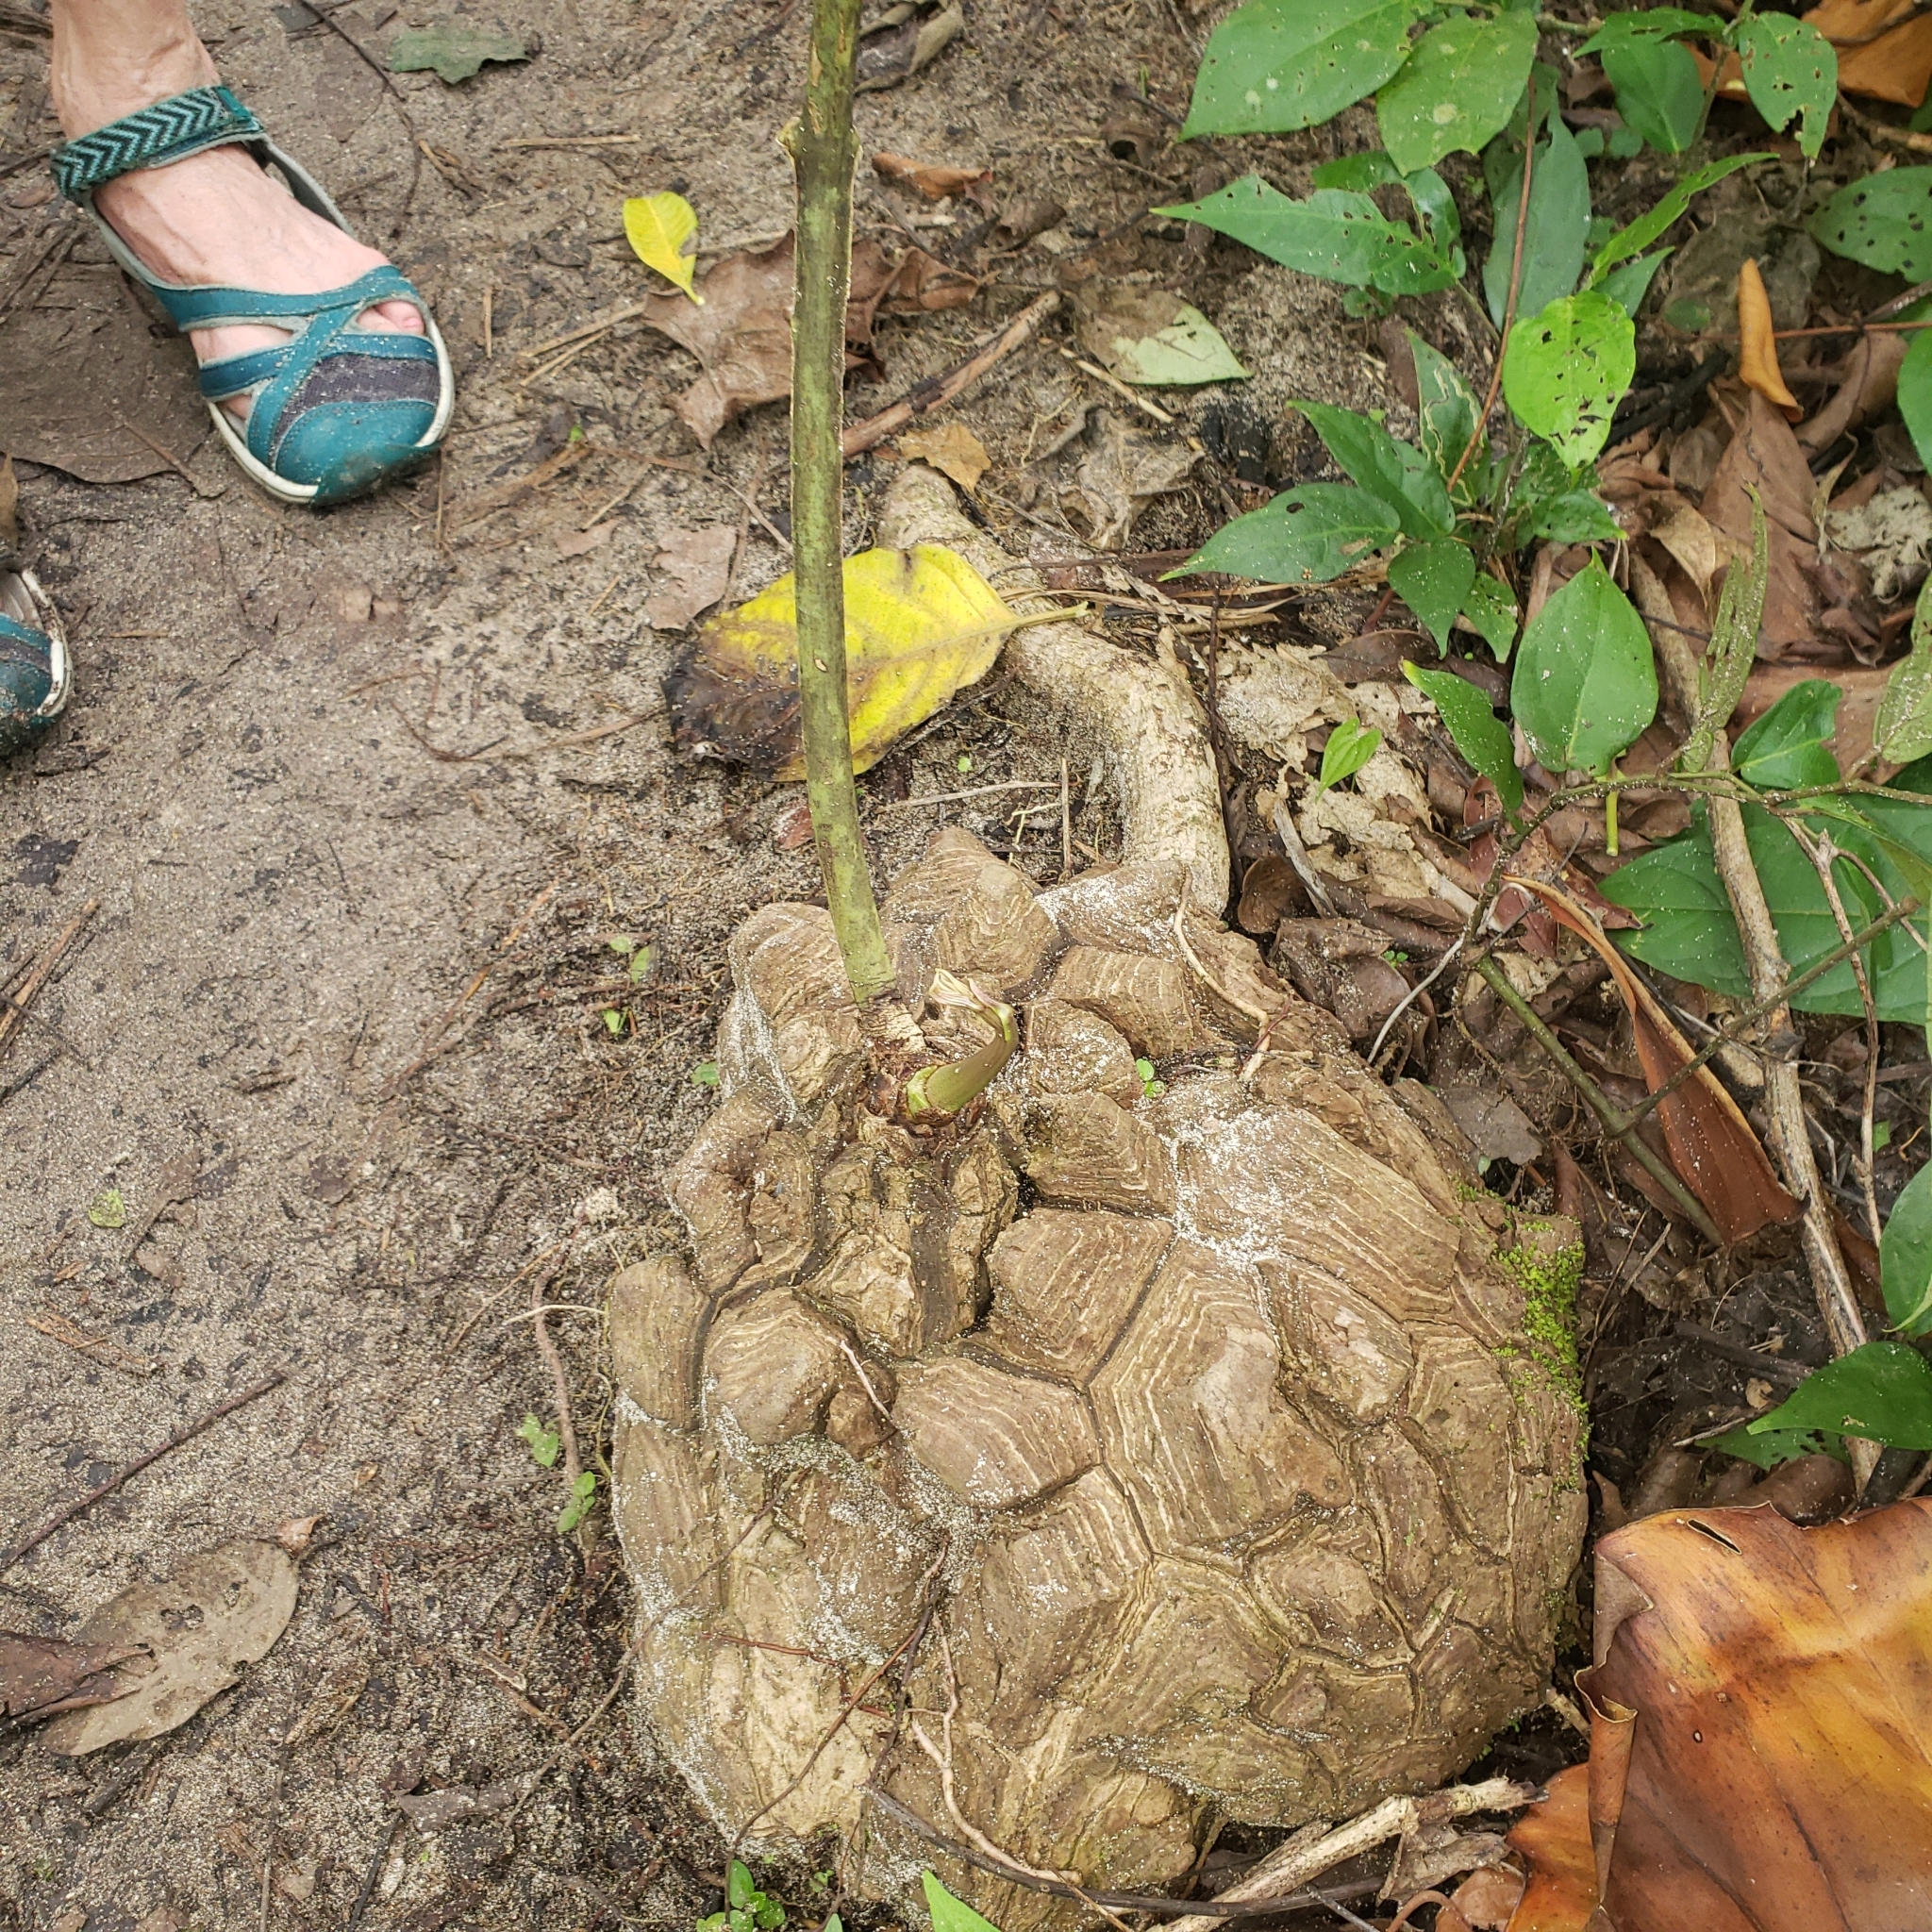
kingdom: Plantae
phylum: Tracheophyta
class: Liliopsida
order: Dioscoreales
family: Dioscoreaceae
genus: Dioscorea
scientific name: Dioscorea mexicana
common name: Mexican yam
